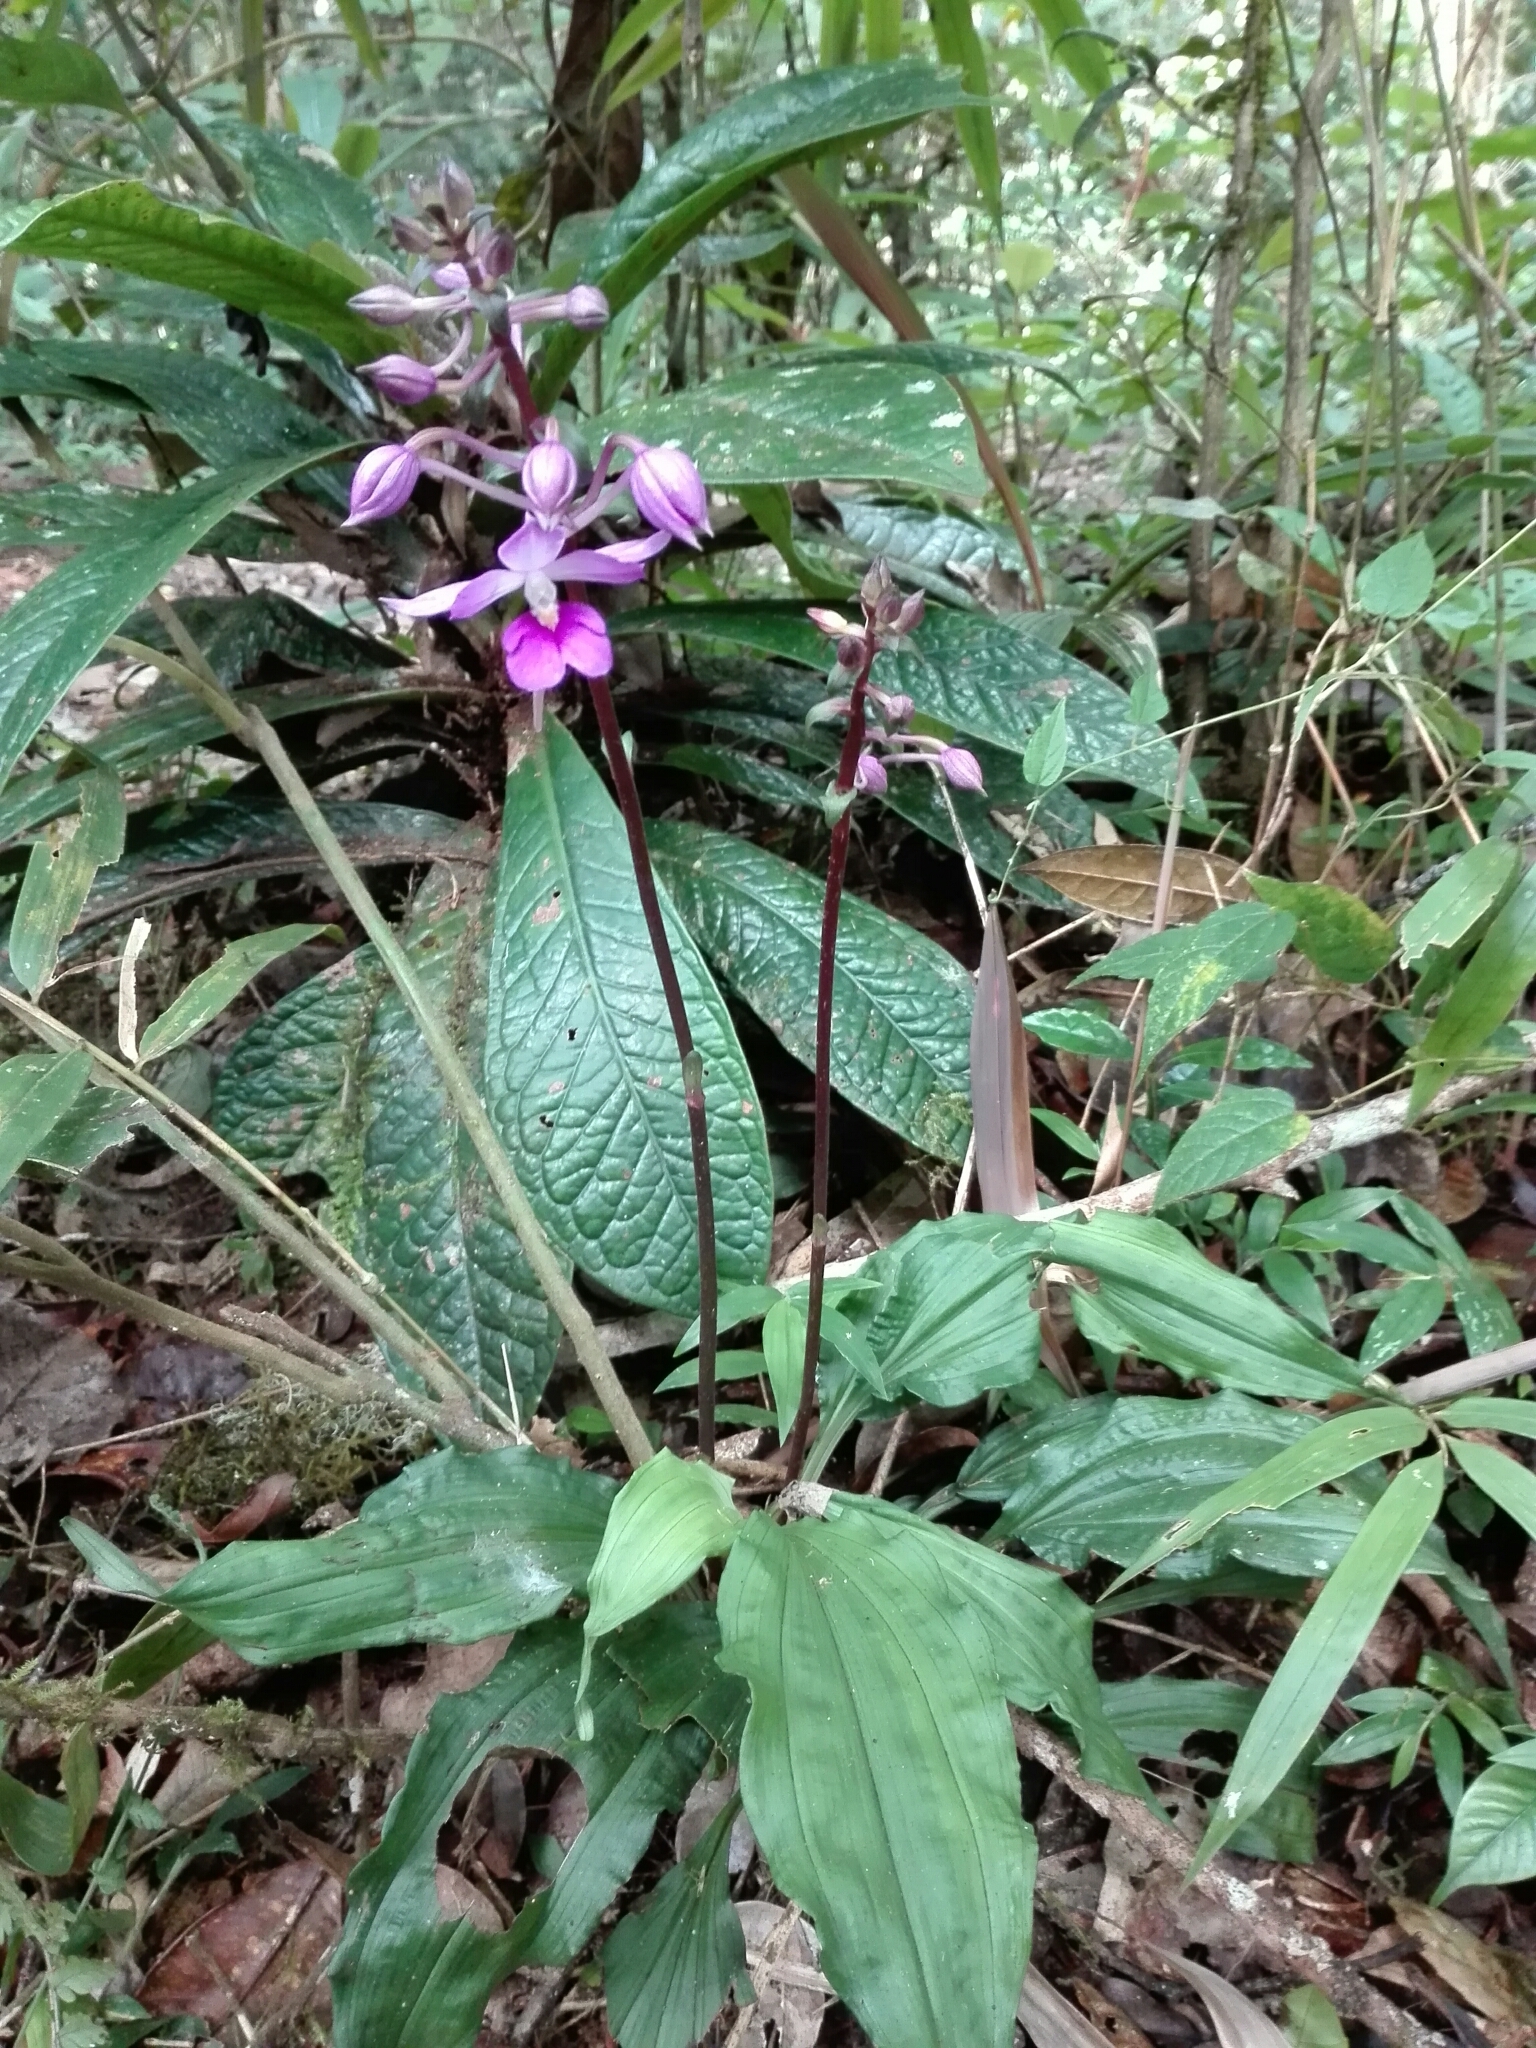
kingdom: Plantae
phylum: Tracheophyta
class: Liliopsida
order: Asparagales
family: Orchidaceae
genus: Calanthe
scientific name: Calanthe madagascariensis
